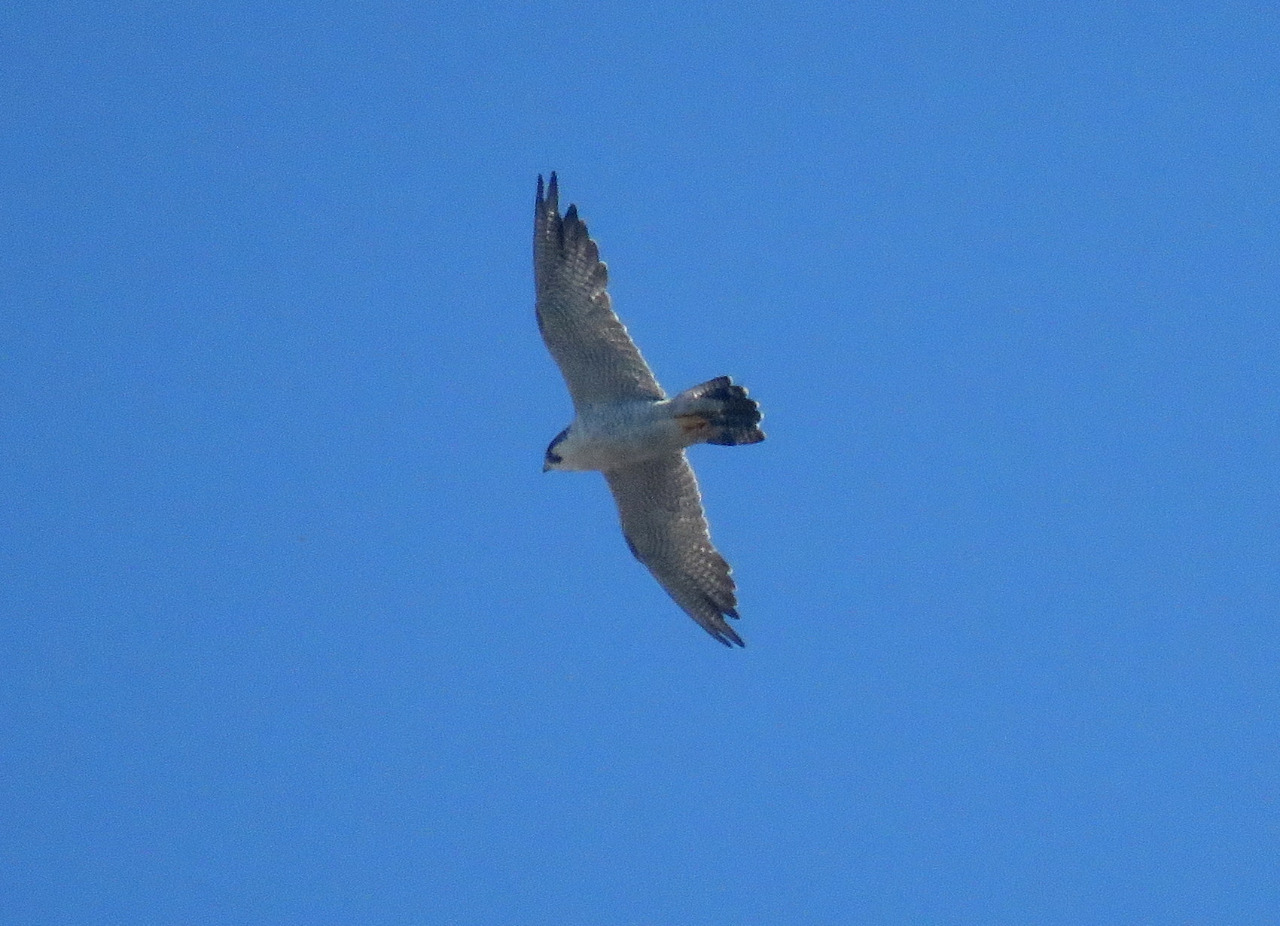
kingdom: Animalia
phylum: Chordata
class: Aves
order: Falconiformes
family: Falconidae
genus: Falco
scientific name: Falco peregrinus
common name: Peregrine falcon
